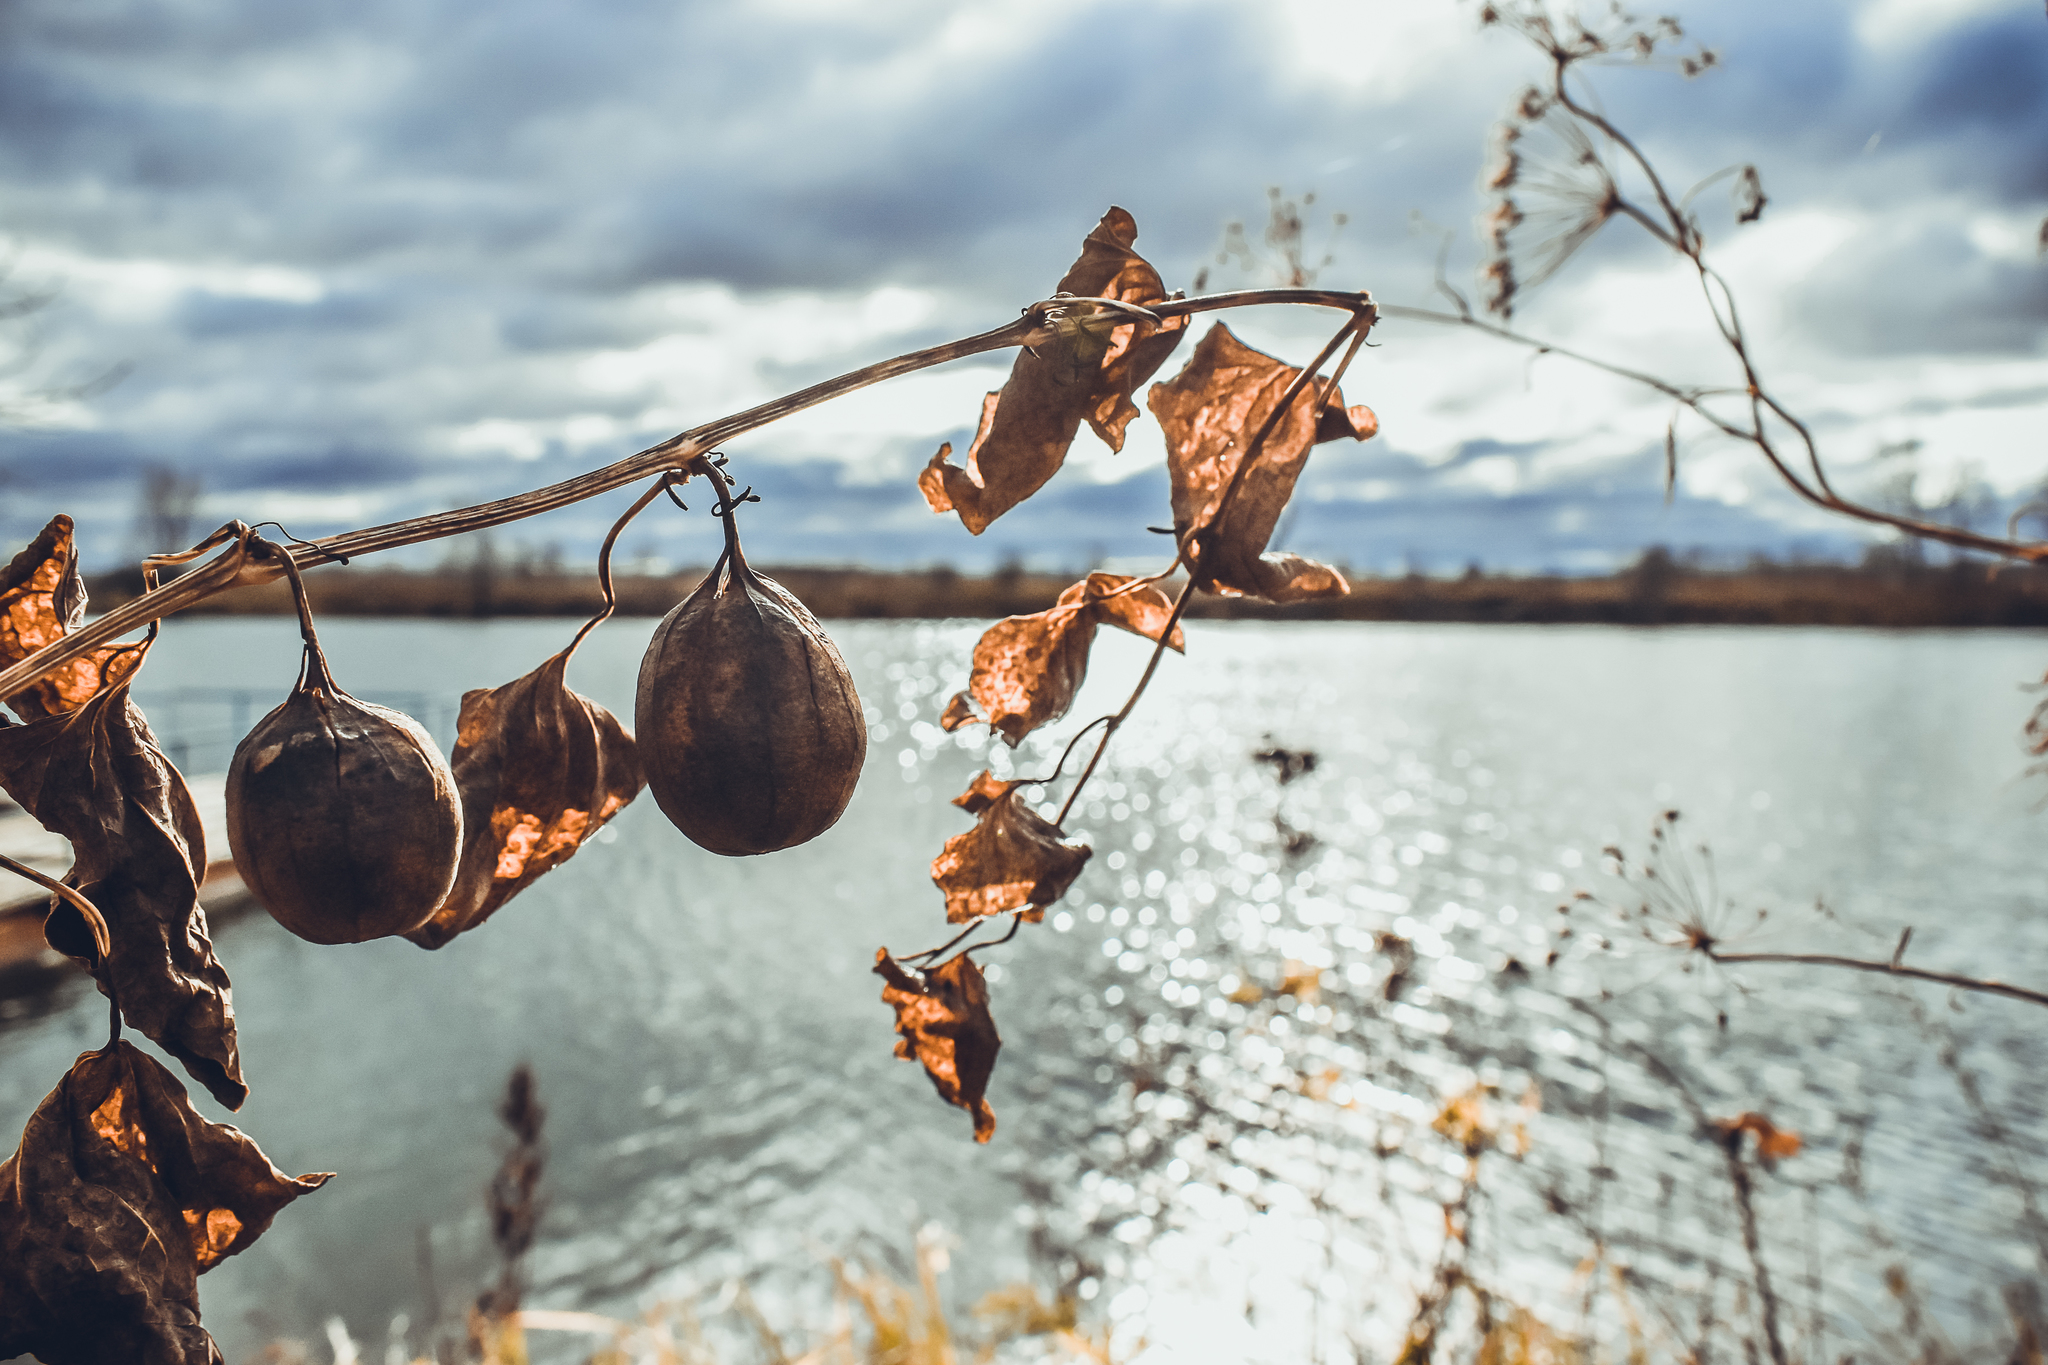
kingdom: Plantae
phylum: Tracheophyta
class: Magnoliopsida
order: Piperales
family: Aristolochiaceae
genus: Aristolochia
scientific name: Aristolochia clematitis
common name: Birthwort
